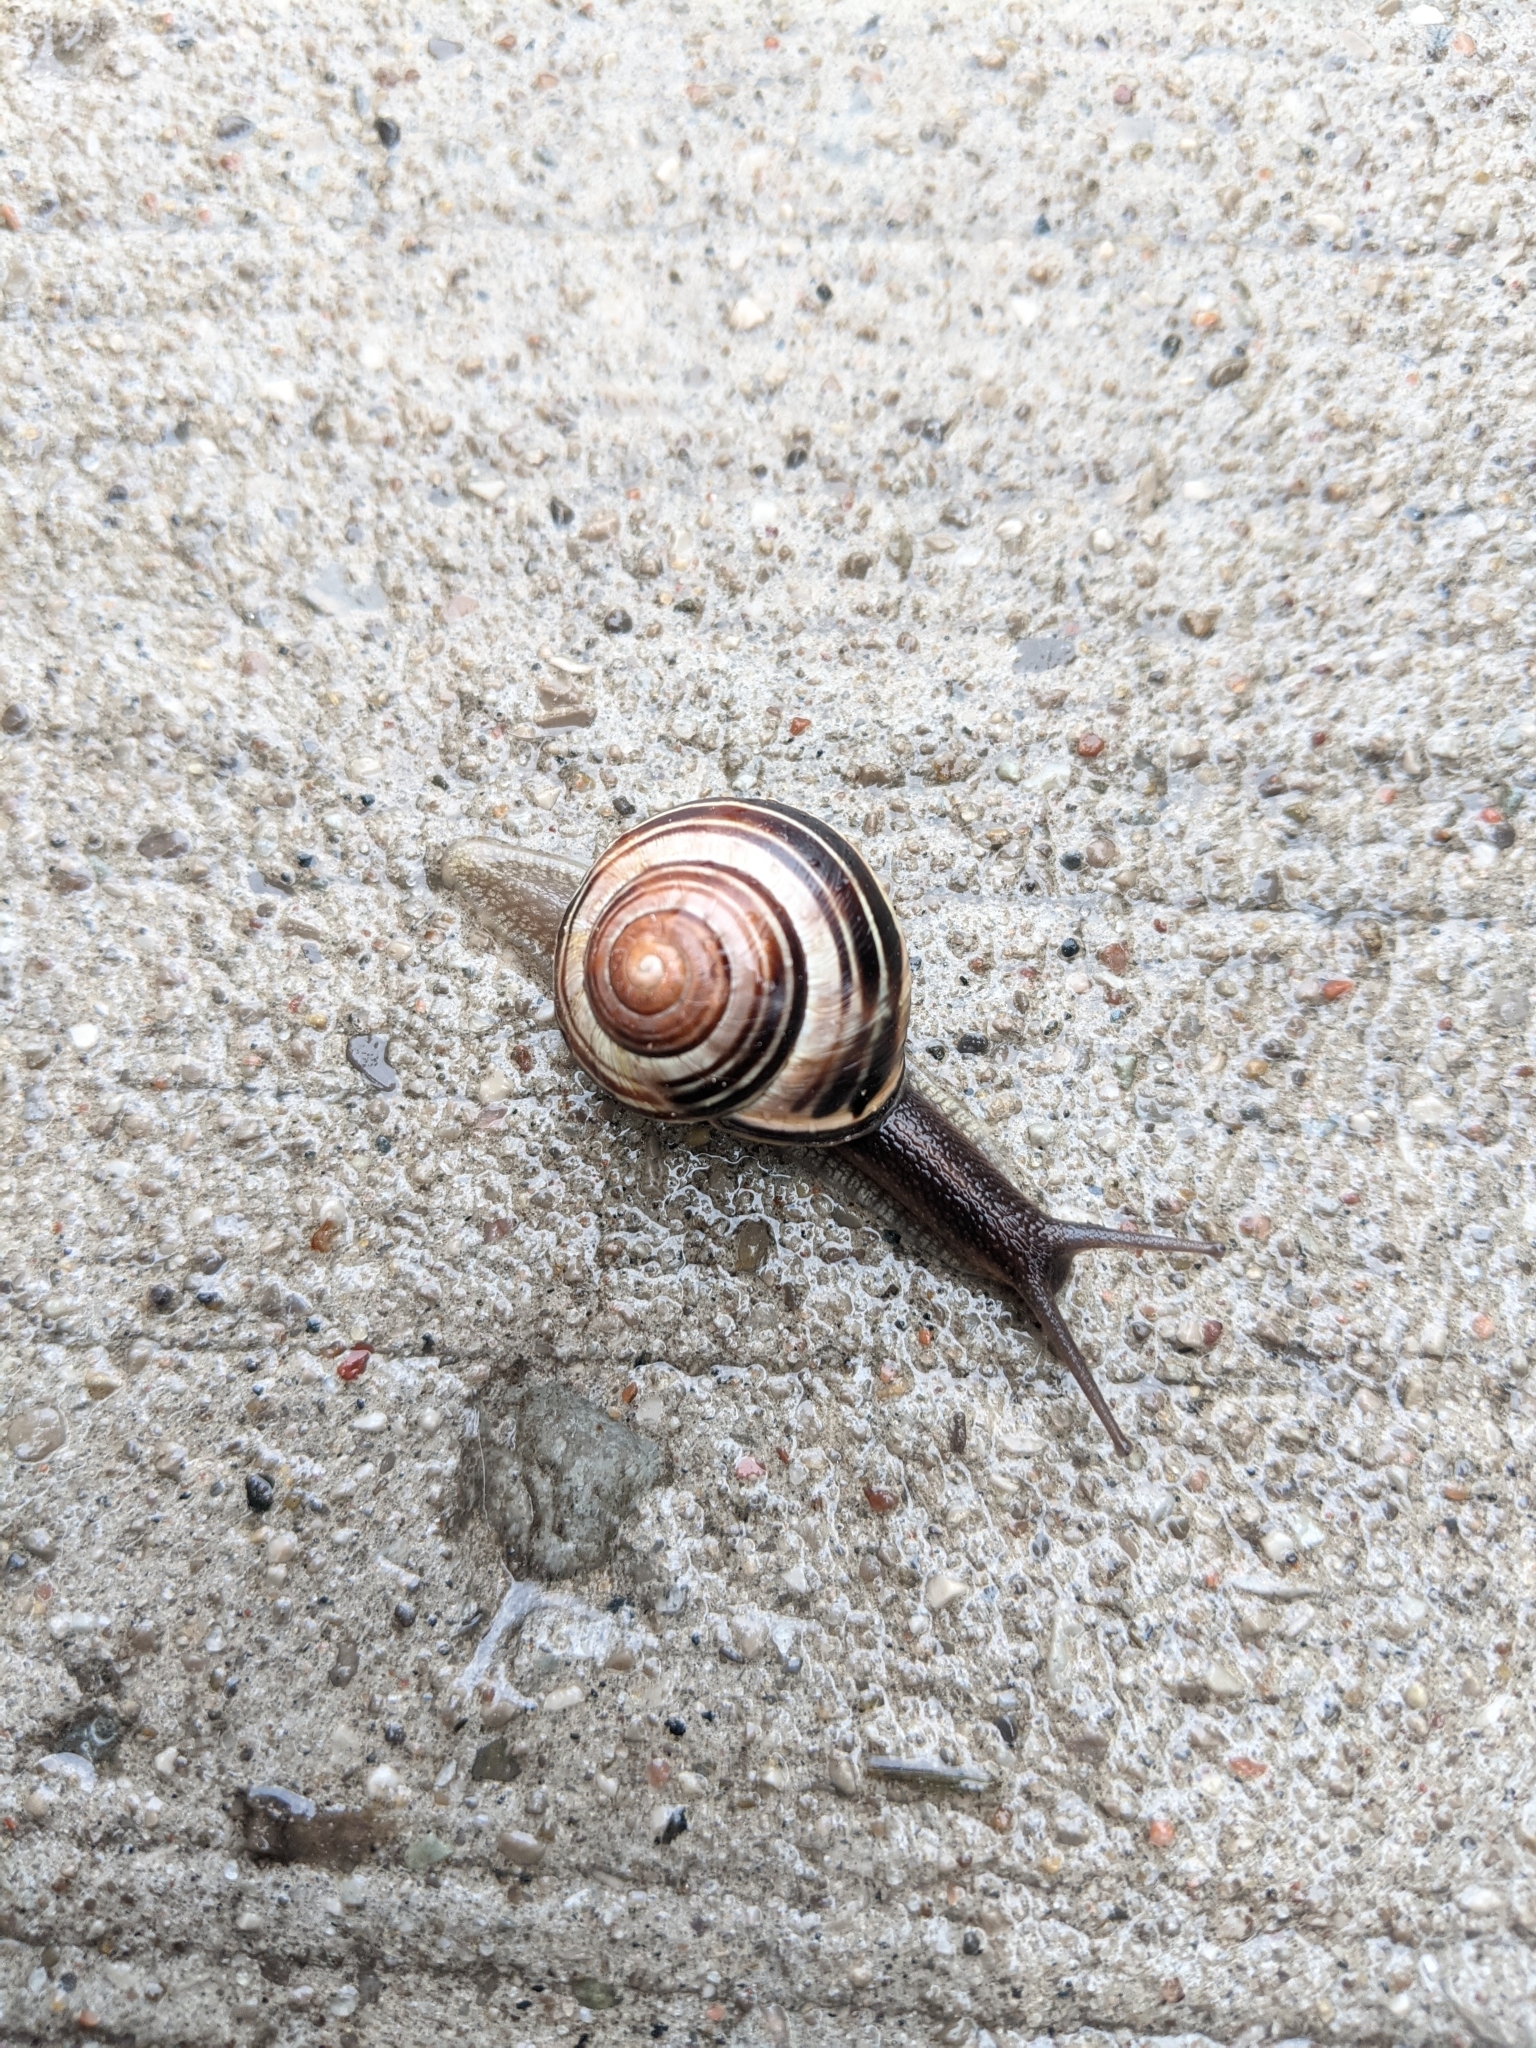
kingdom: Animalia
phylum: Mollusca
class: Gastropoda
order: Stylommatophora
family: Helicidae
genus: Cepaea
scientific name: Cepaea nemoralis
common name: Grovesnail
